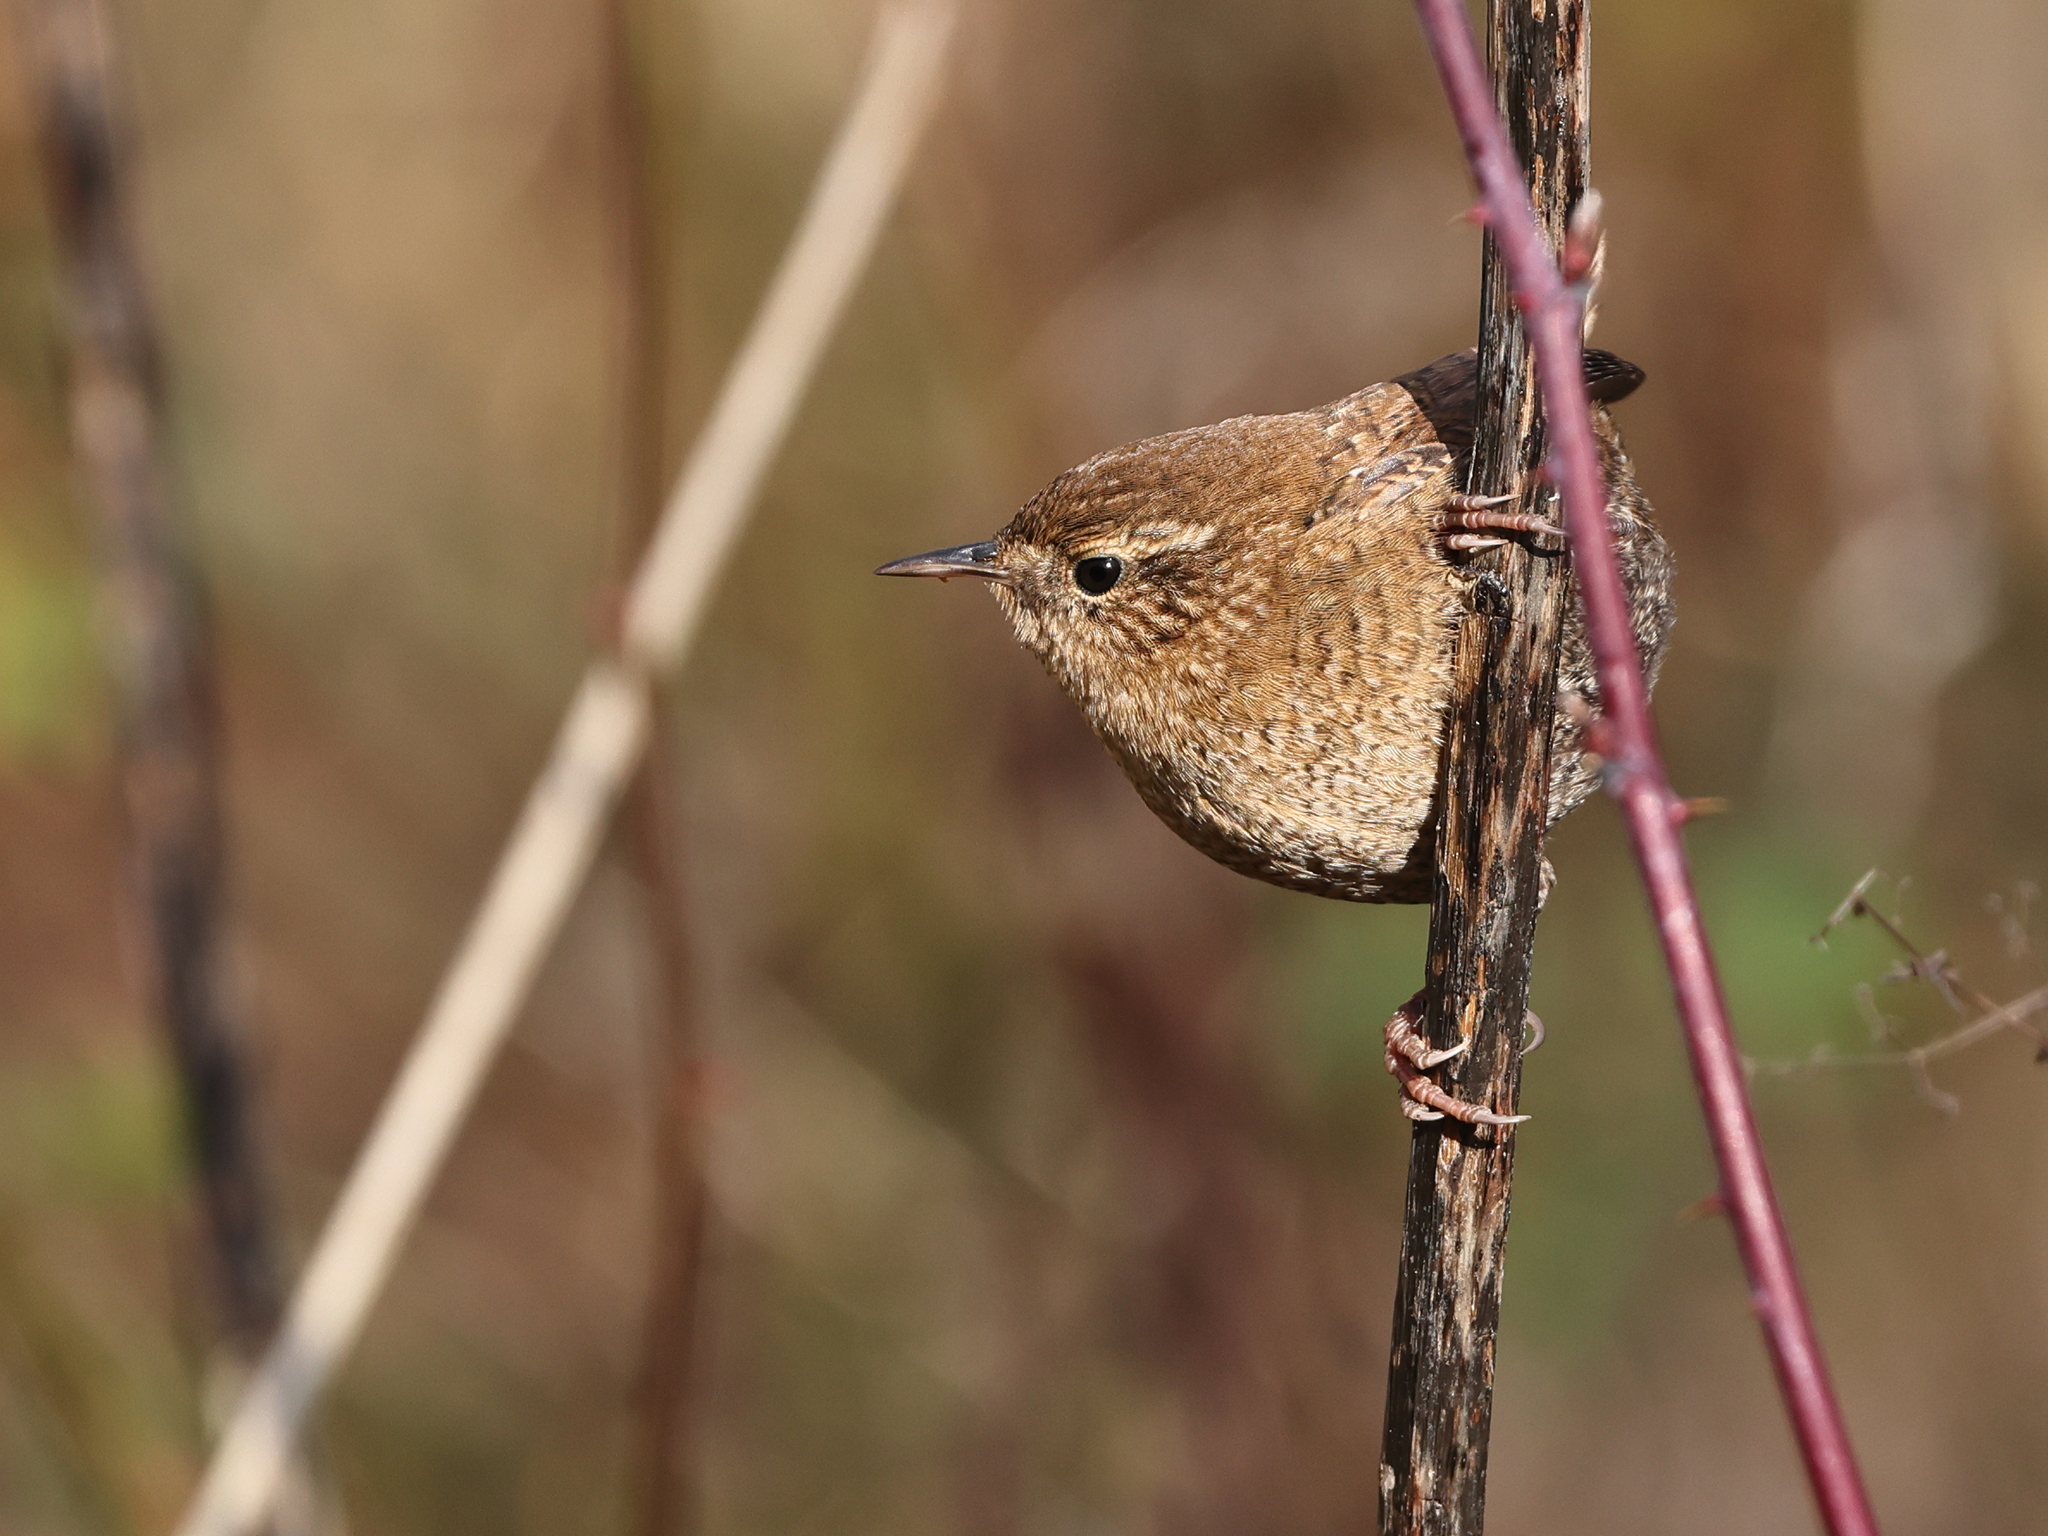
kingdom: Animalia
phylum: Chordata
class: Aves
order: Passeriformes
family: Troglodytidae
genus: Troglodytes
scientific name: Troglodytes hiemalis
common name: Winter wren
